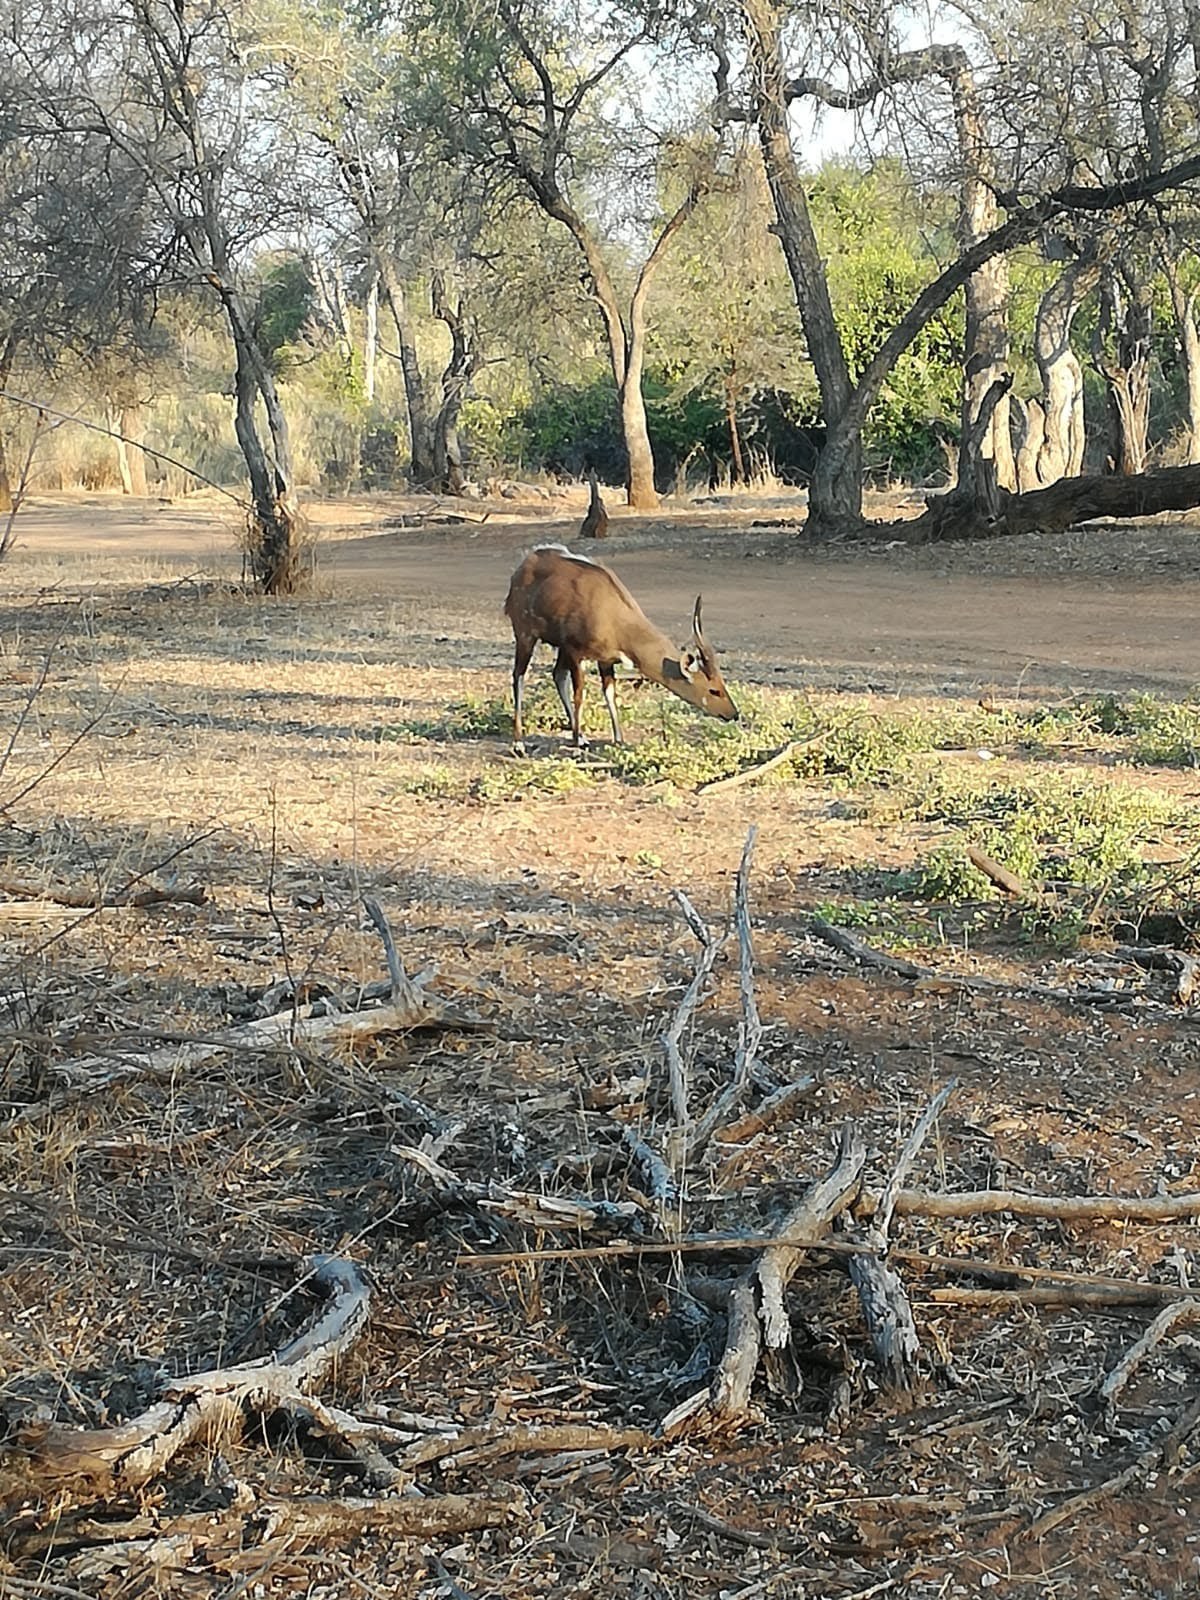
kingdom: Animalia
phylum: Chordata
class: Mammalia
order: Artiodactyla
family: Bovidae
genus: Tragelaphus
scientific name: Tragelaphus scriptus
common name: Bushbuck
